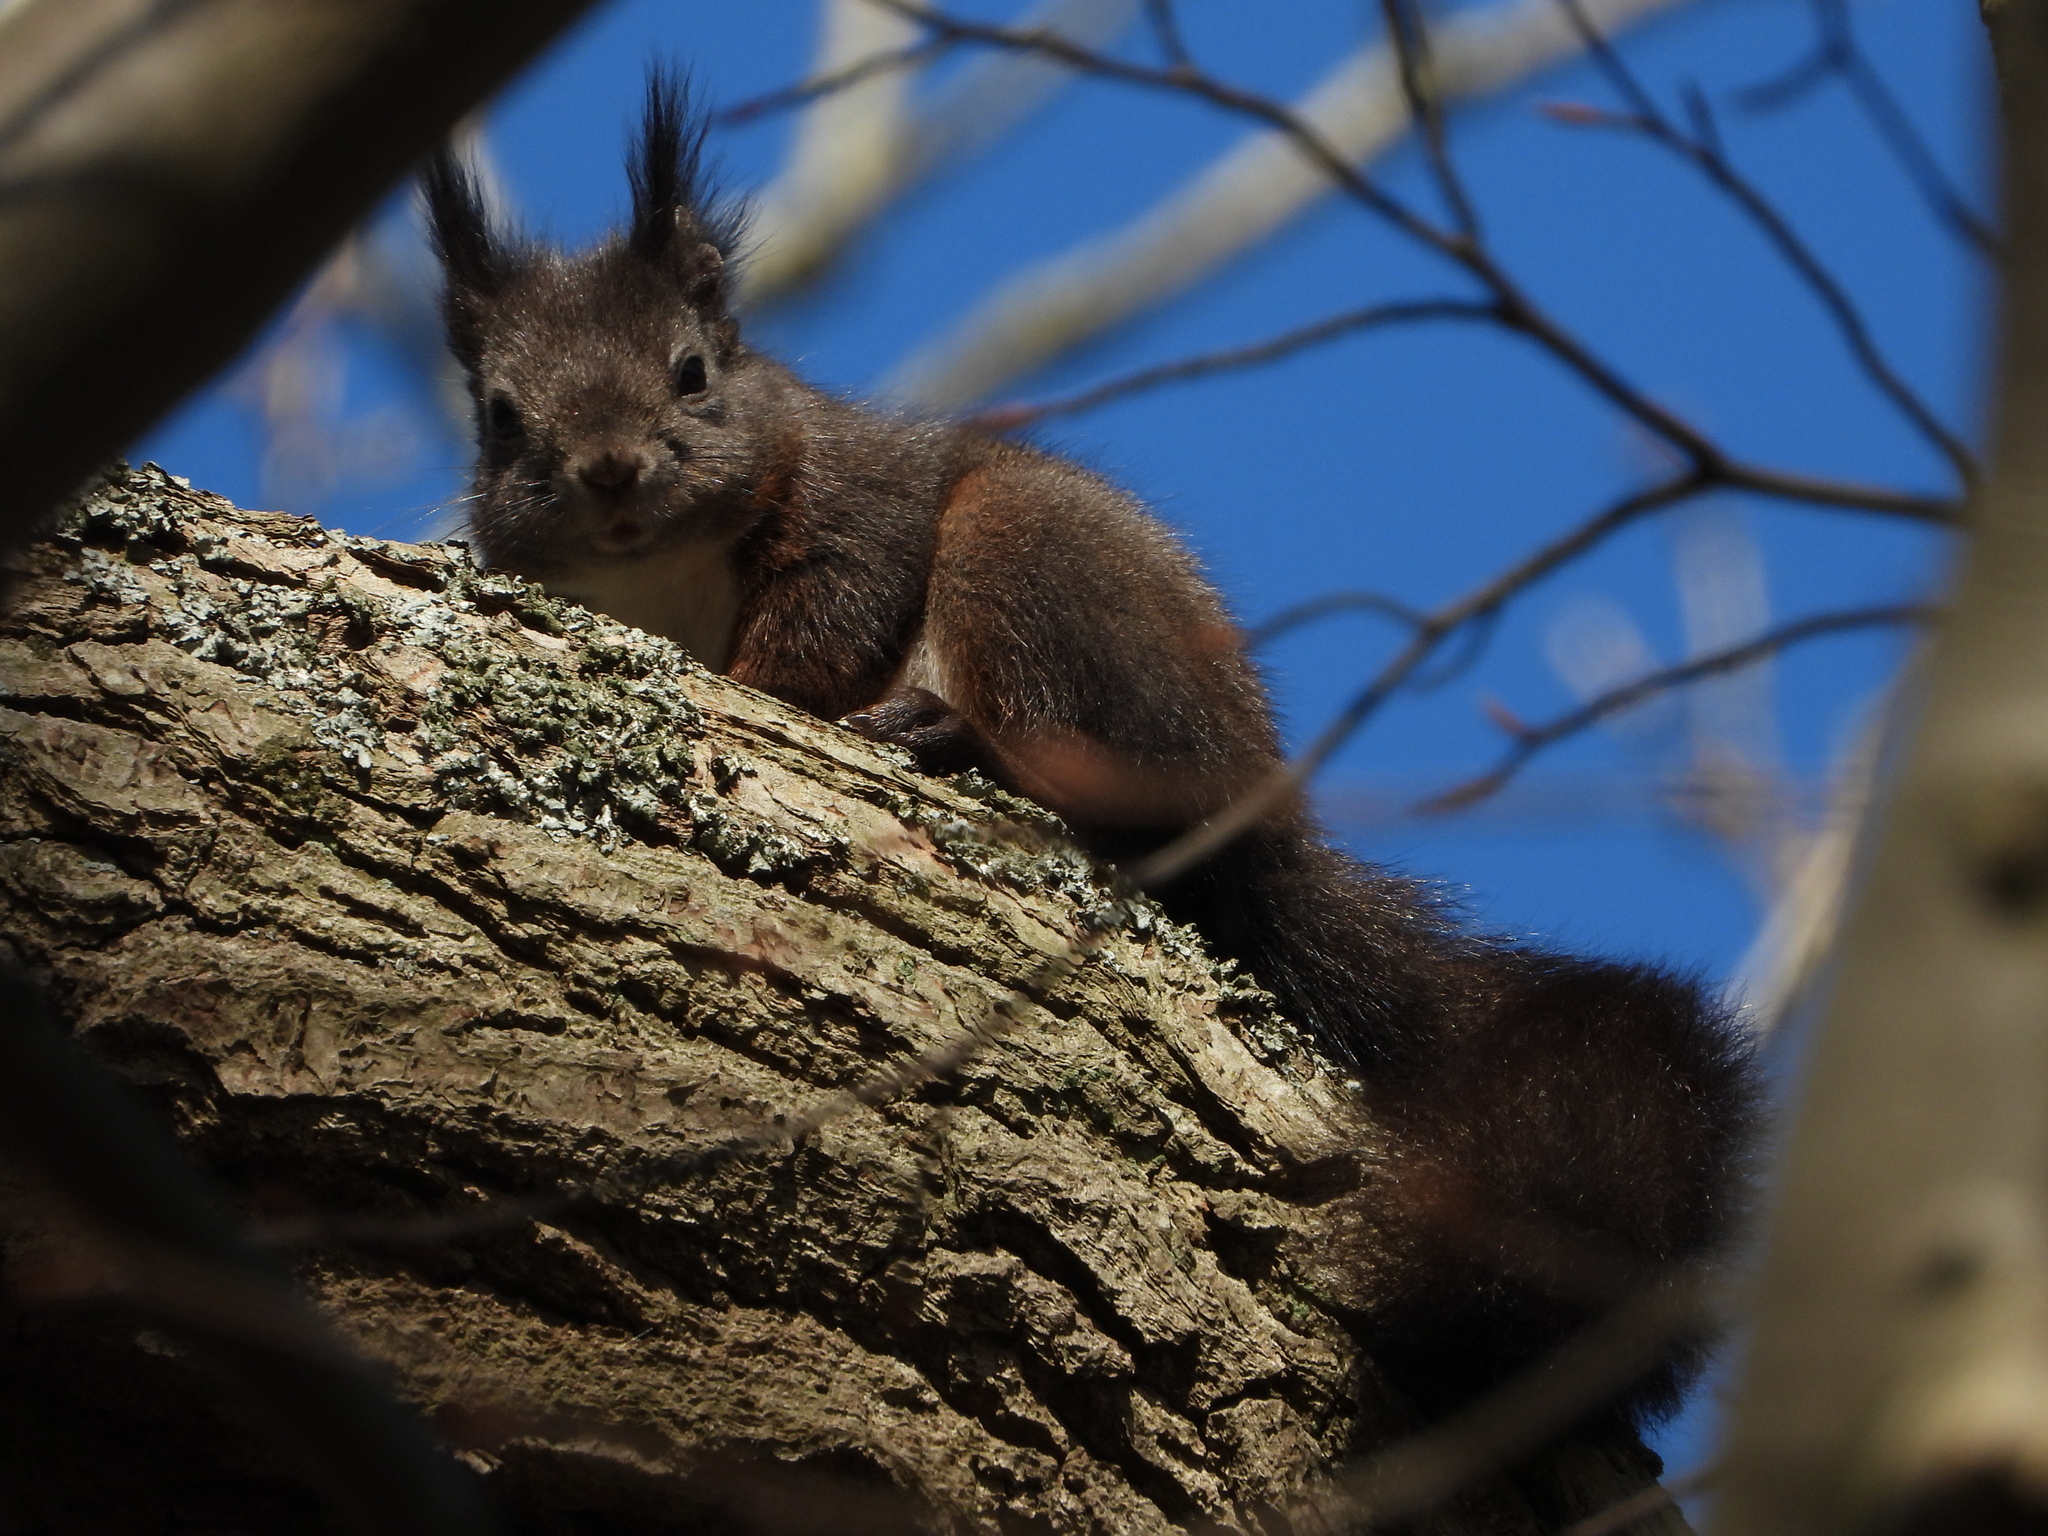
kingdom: Animalia
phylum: Chordata
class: Mammalia
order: Rodentia
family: Sciuridae
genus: Sciurus
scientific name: Sciurus vulgaris
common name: Eurasian red squirrel
